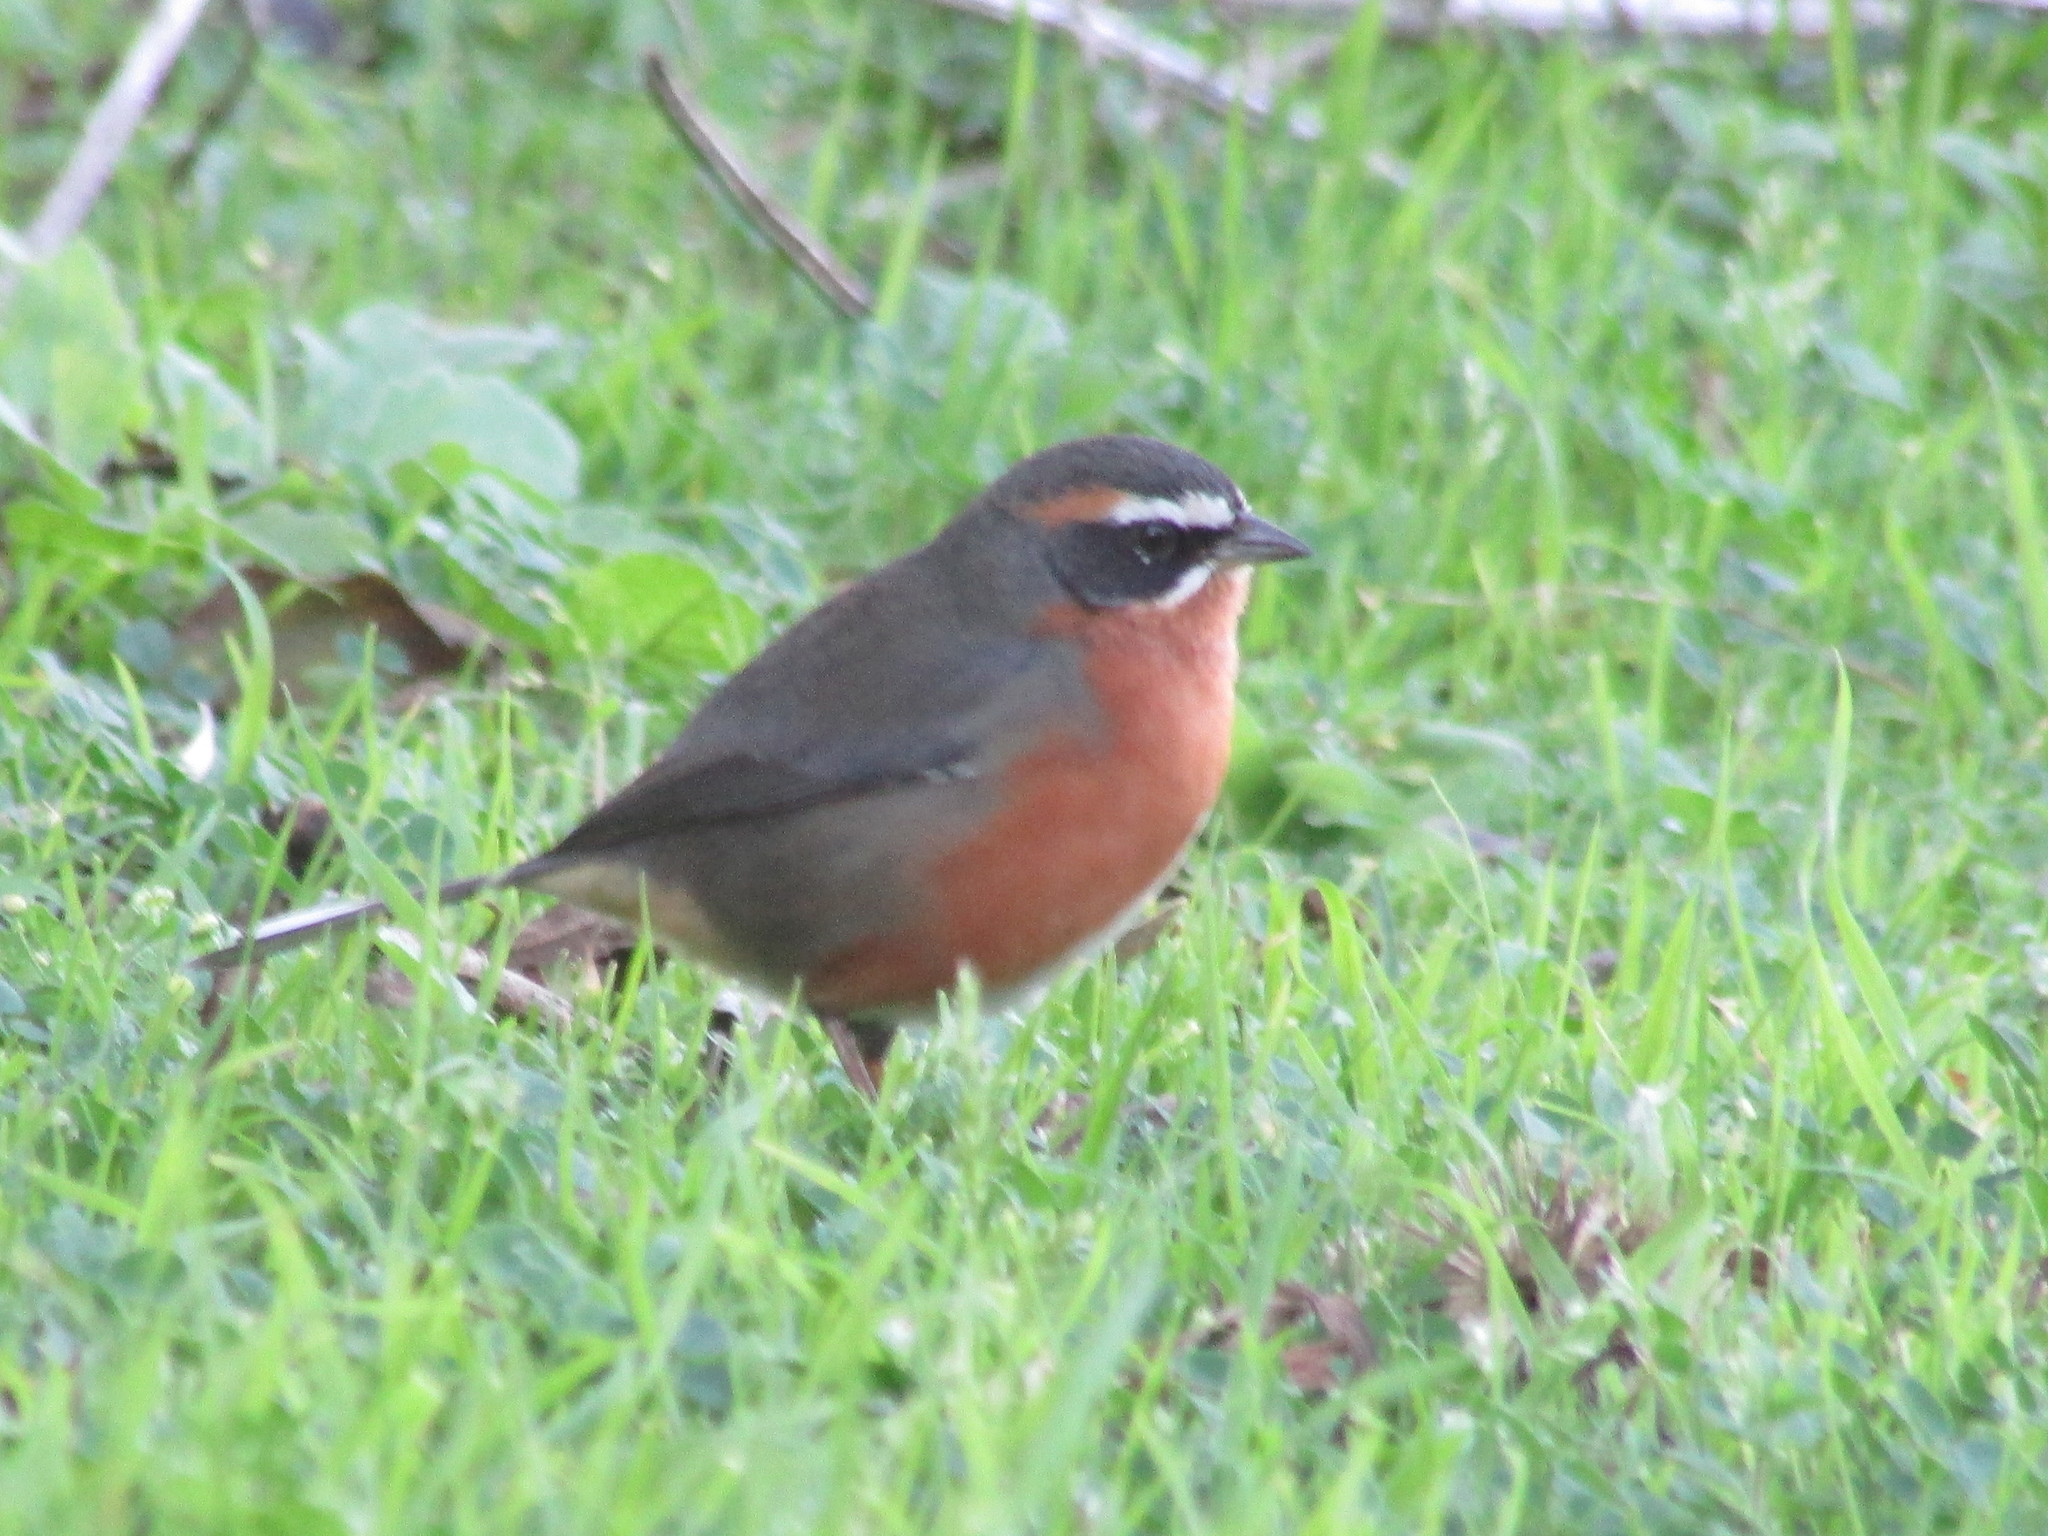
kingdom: Animalia
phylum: Chordata
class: Aves
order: Passeriformes
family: Thraupidae
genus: Poospiza
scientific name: Poospiza nigrorufa
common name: Black-and-rufous warbling finch
